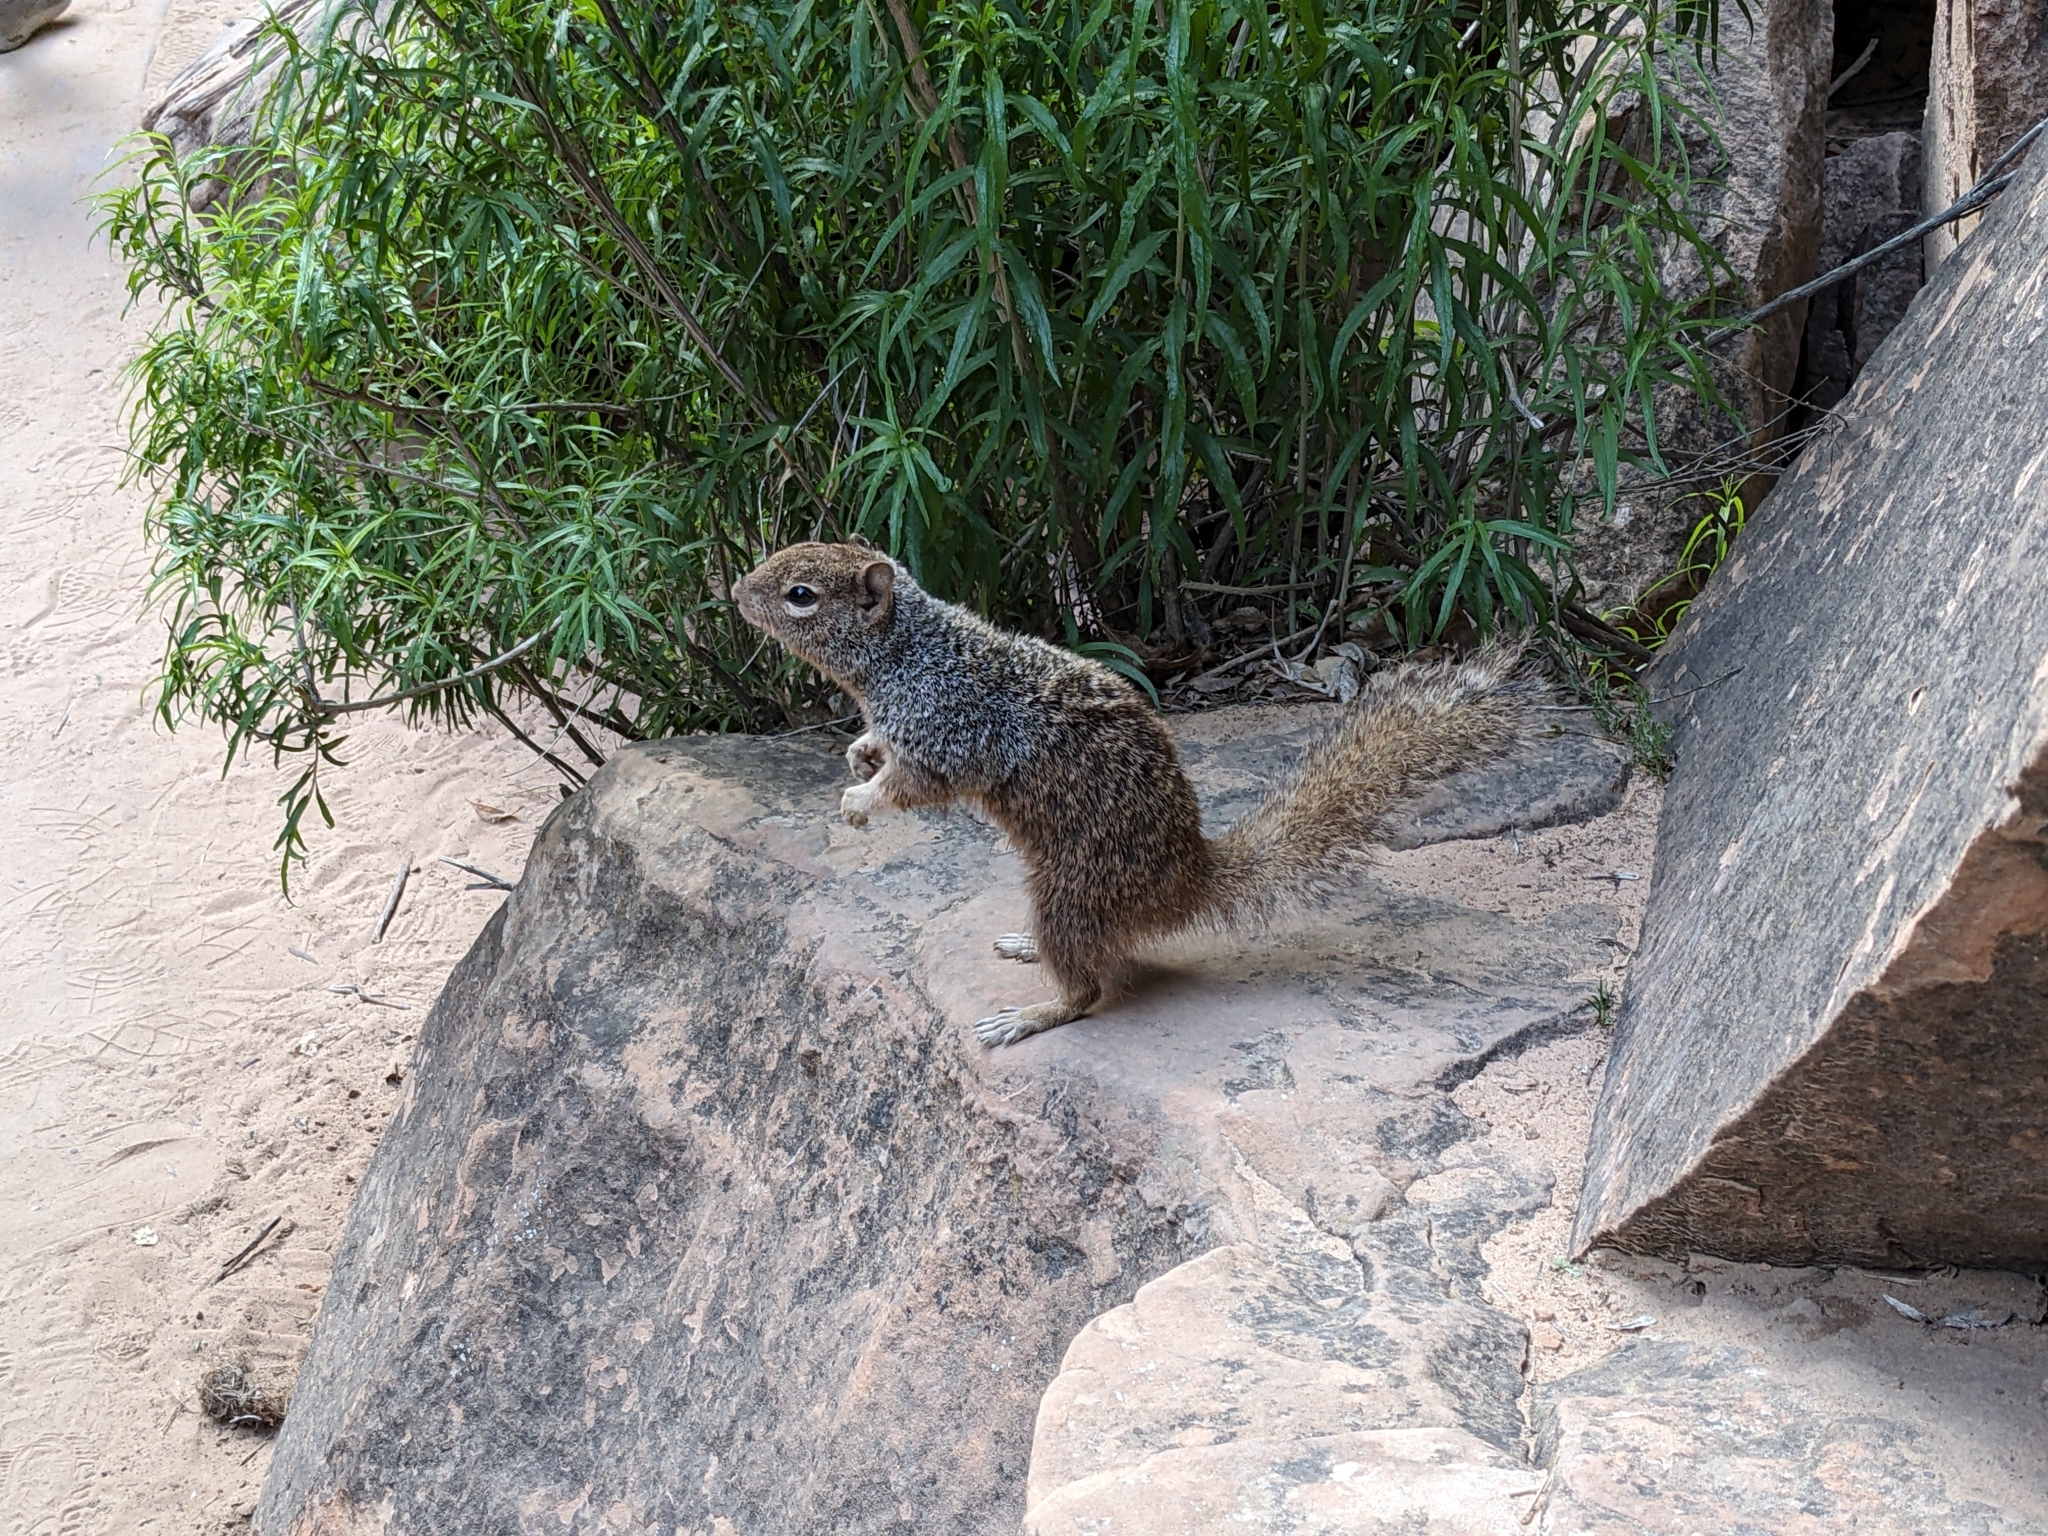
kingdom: Animalia
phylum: Chordata
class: Mammalia
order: Rodentia
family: Sciuridae
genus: Otospermophilus
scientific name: Otospermophilus variegatus
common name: Rock squirrel
